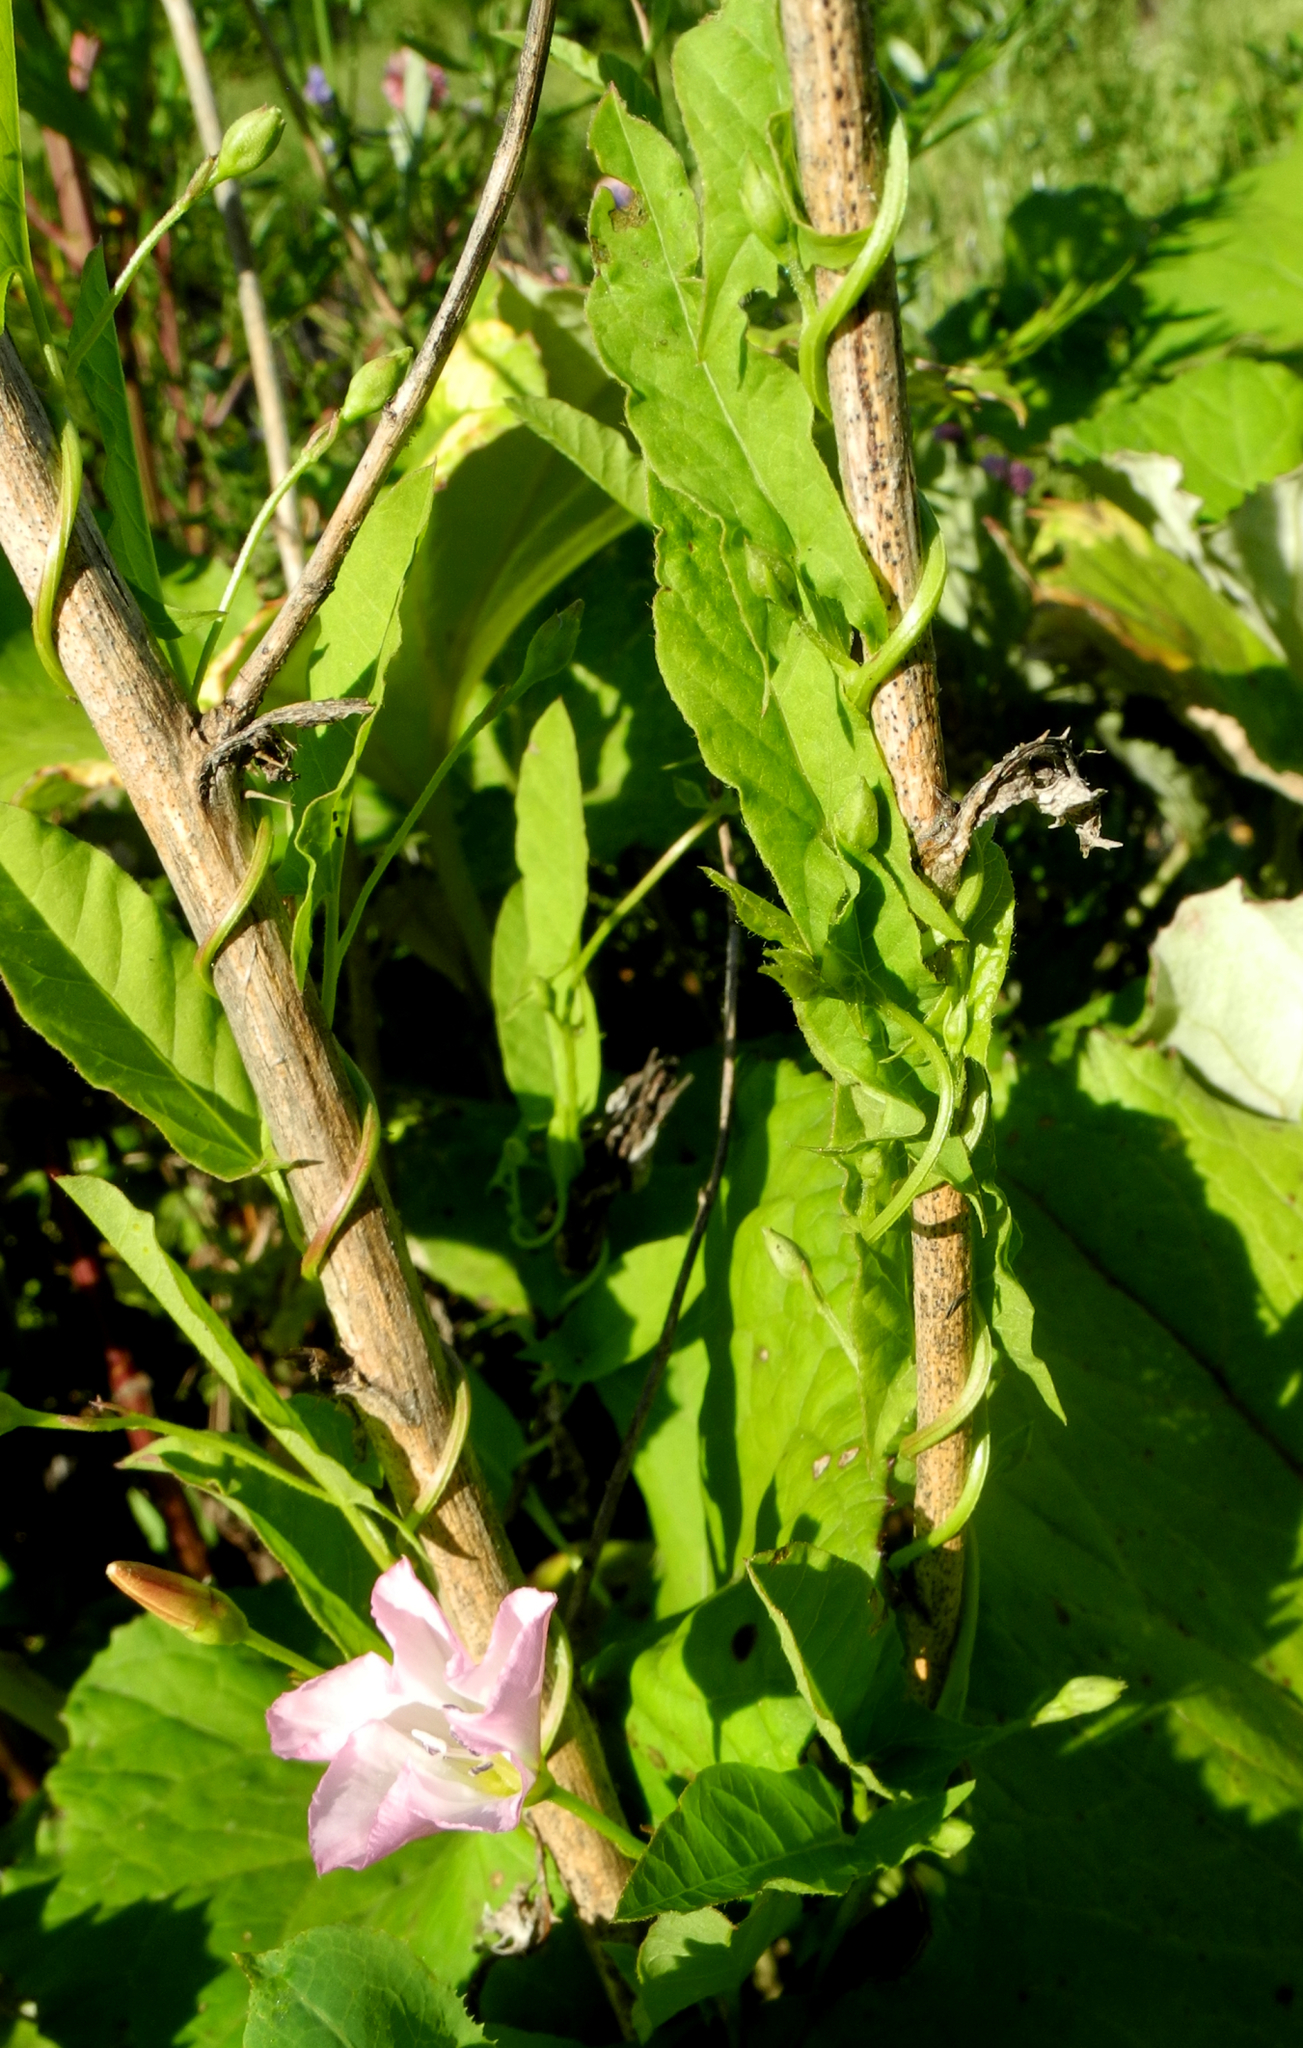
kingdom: Plantae
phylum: Tracheophyta
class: Magnoliopsida
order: Solanales
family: Convolvulaceae
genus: Convolvulus
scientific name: Convolvulus arvensis
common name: Field bindweed
